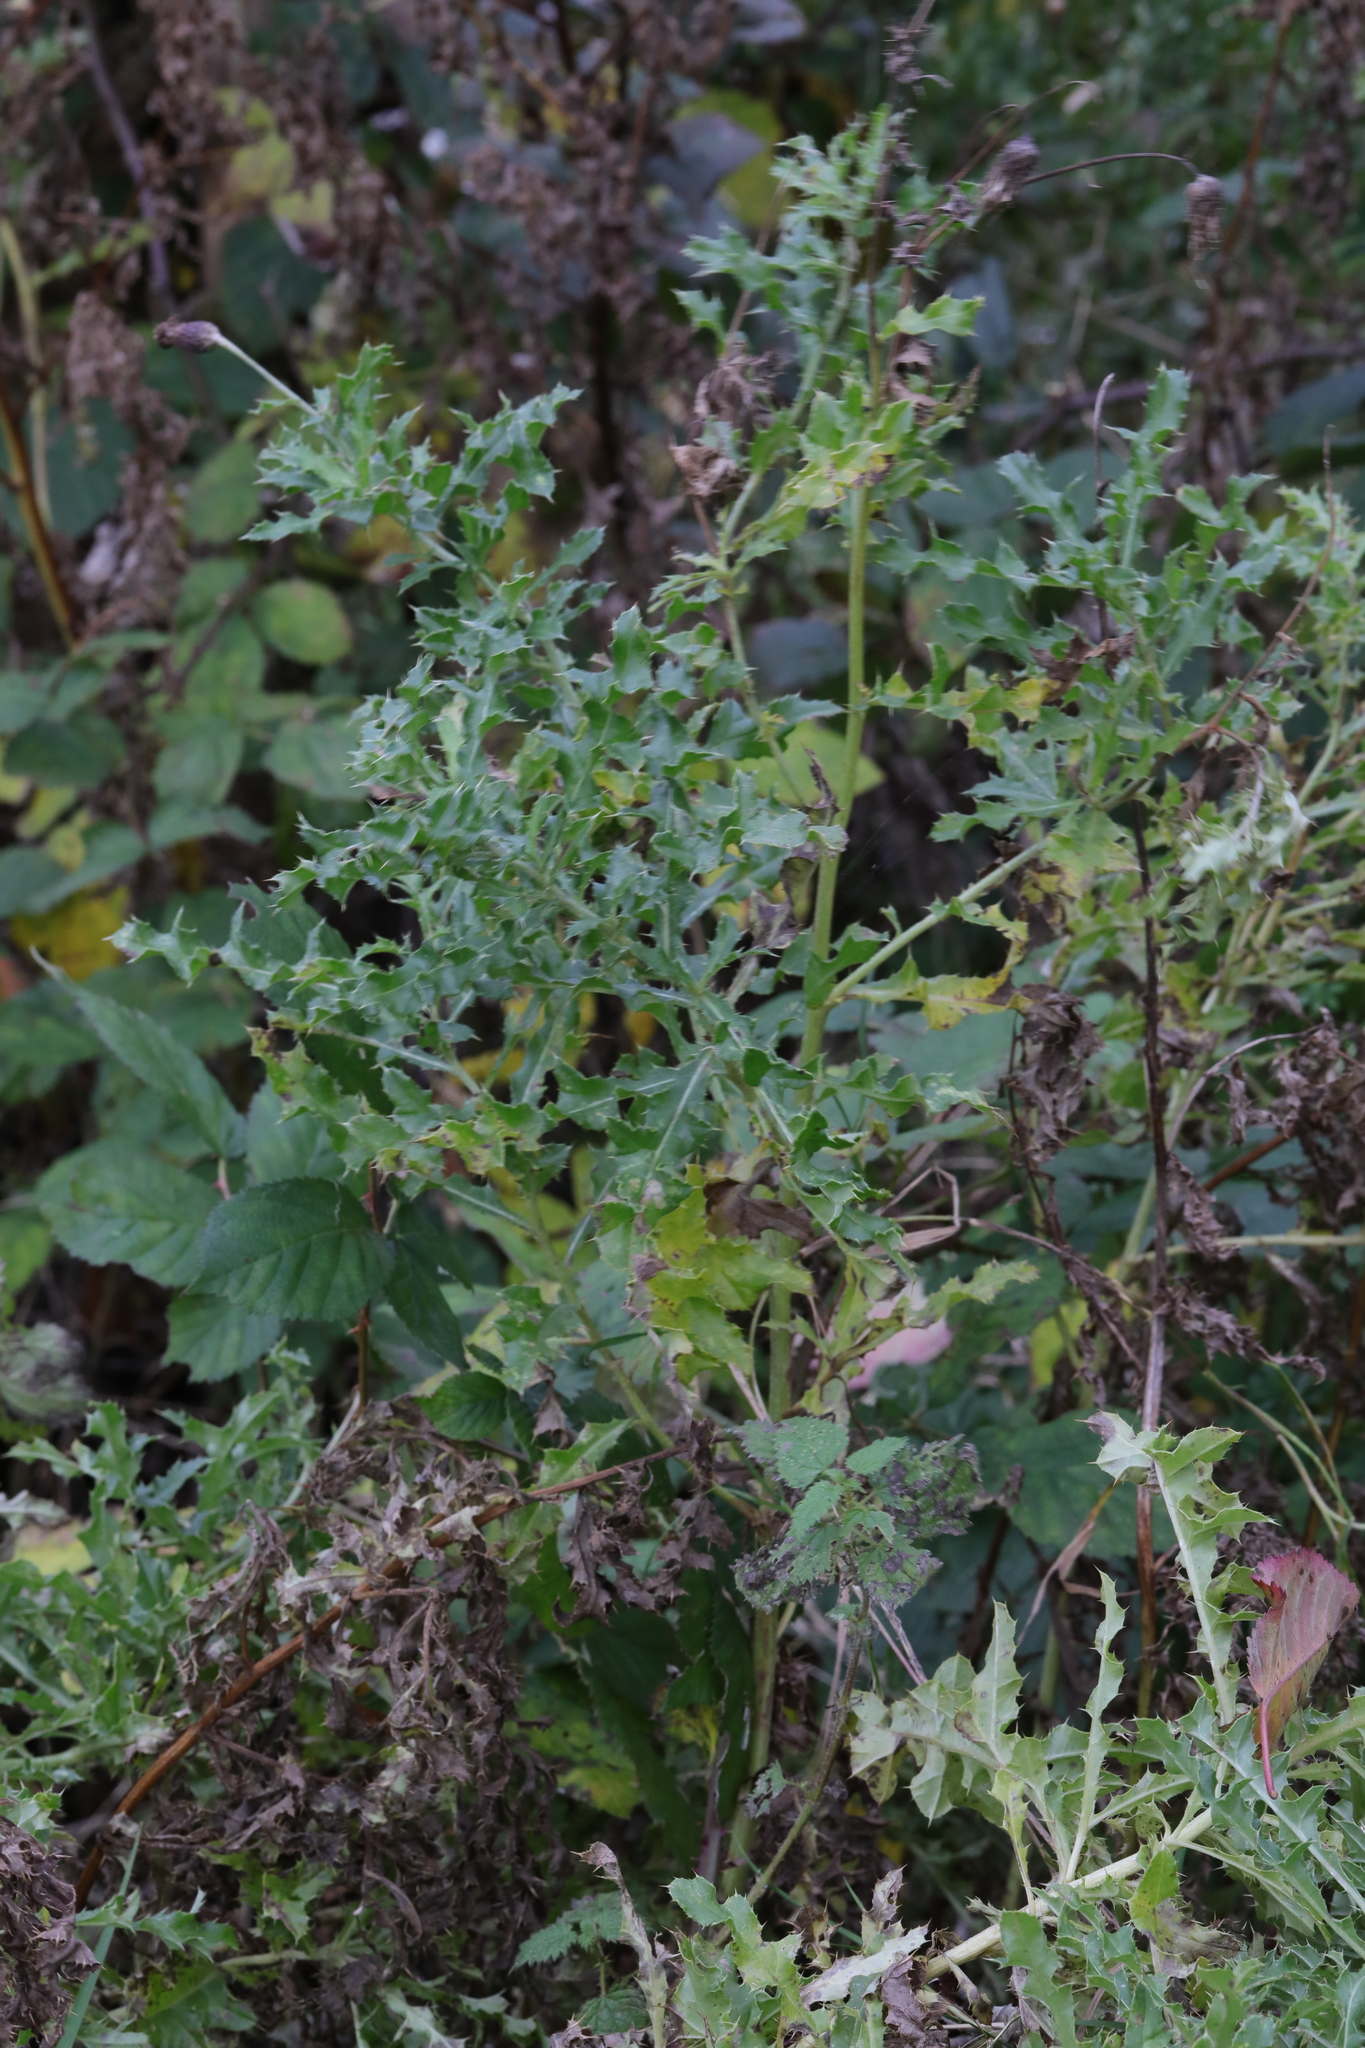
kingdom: Plantae
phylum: Tracheophyta
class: Magnoliopsida
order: Asterales
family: Asteraceae
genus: Cirsium
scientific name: Cirsium arvense
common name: Creeping thistle
